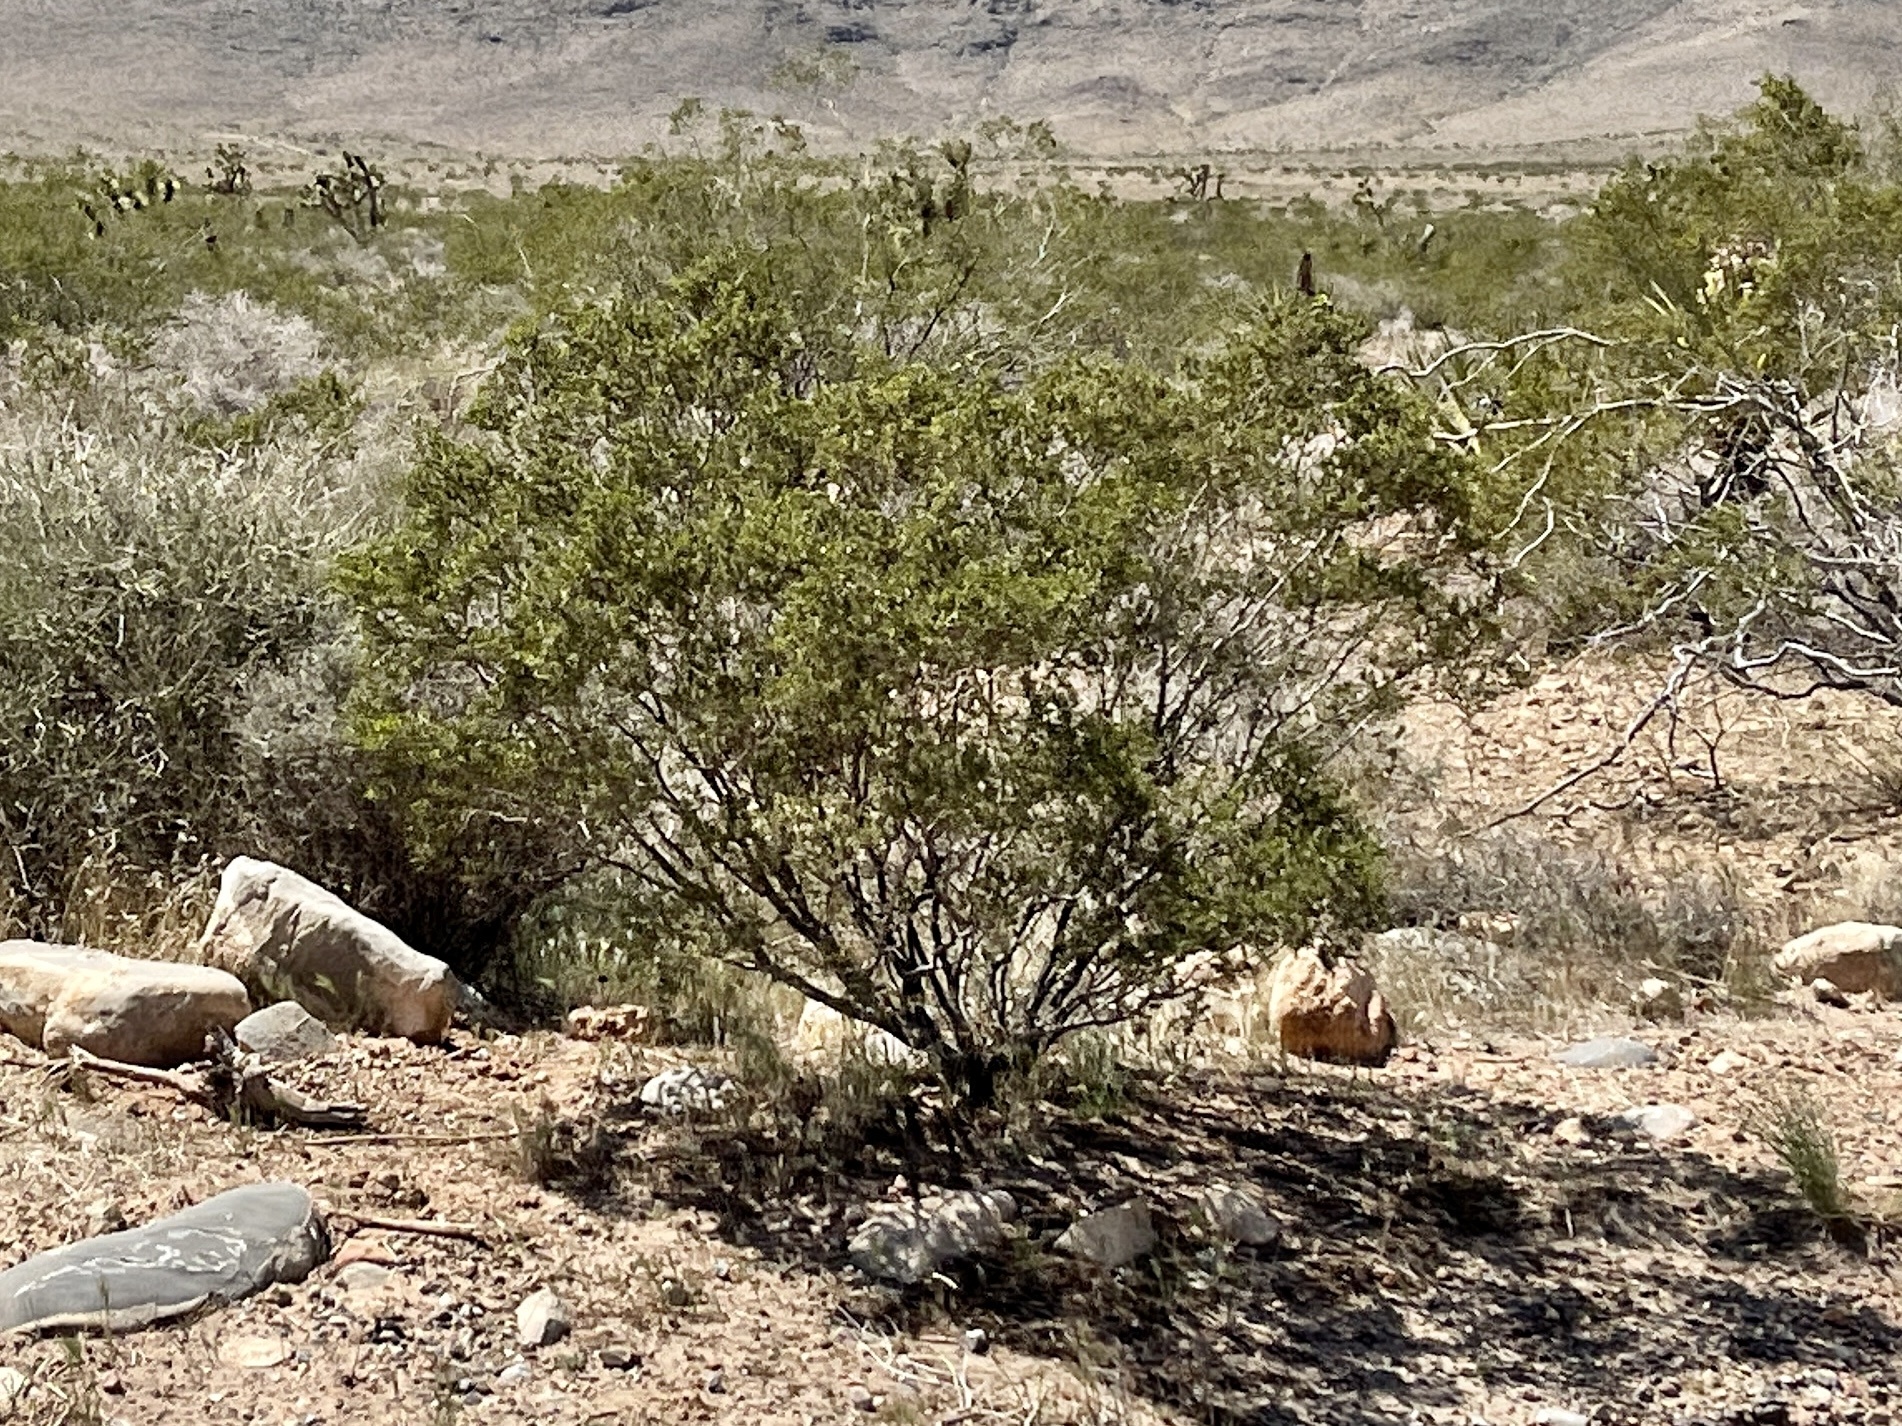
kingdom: Plantae
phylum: Tracheophyta
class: Magnoliopsida
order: Zygophyllales
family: Zygophyllaceae
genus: Larrea
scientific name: Larrea tridentata
